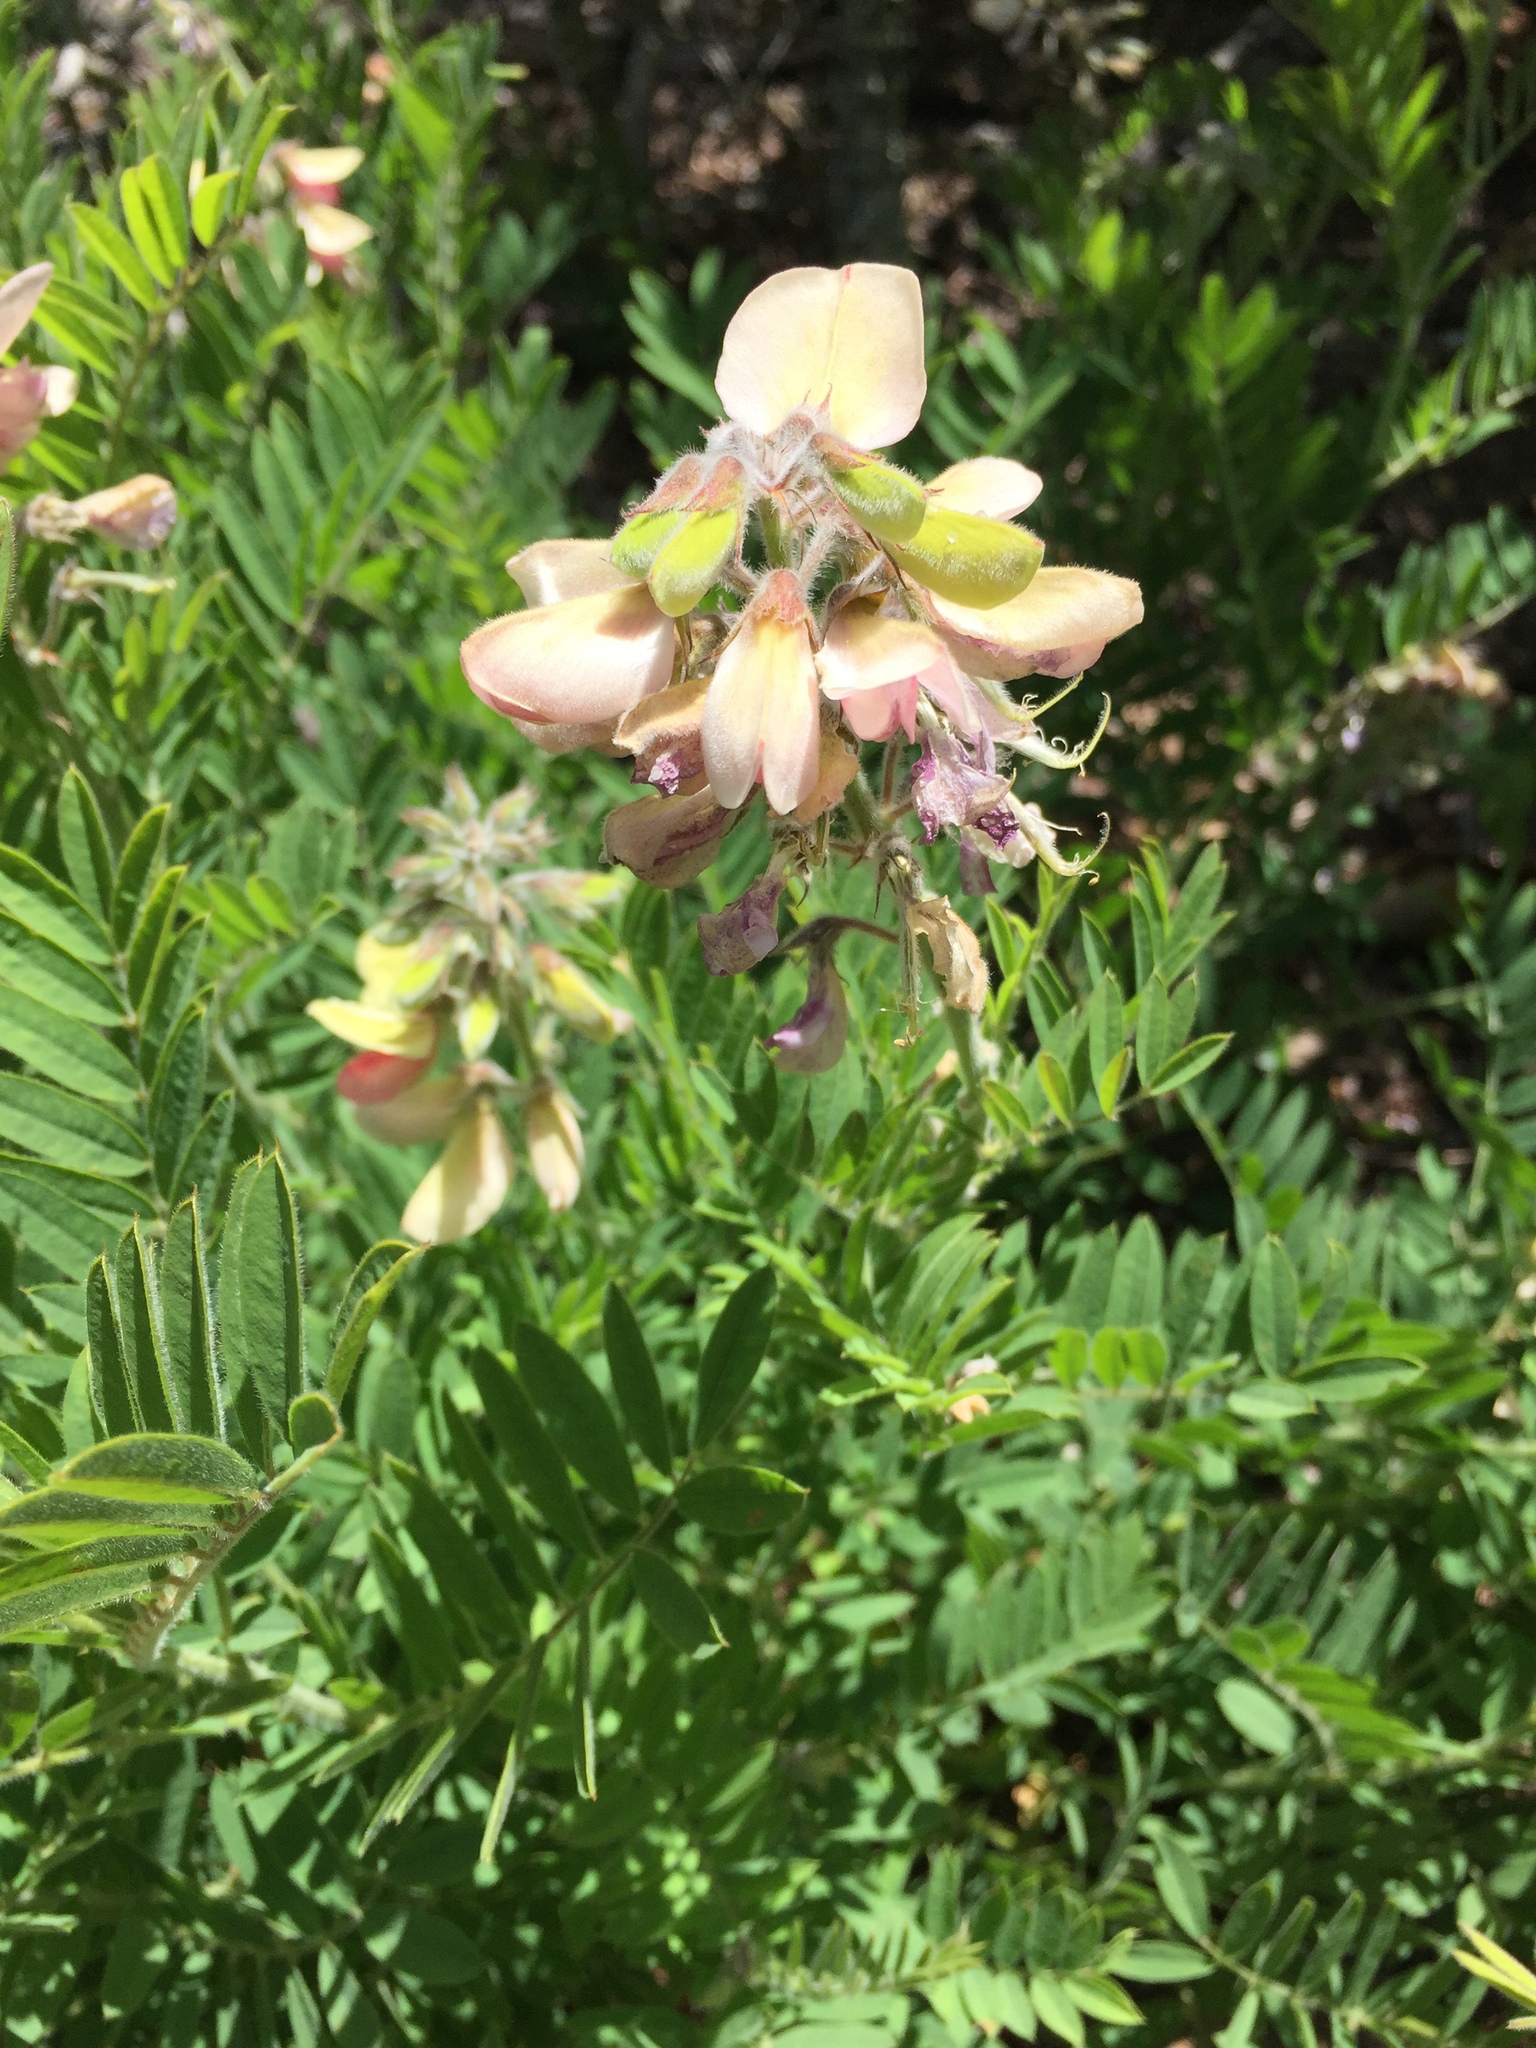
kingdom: Plantae
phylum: Tracheophyta
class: Magnoliopsida
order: Fabales
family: Fabaceae
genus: Tephrosia
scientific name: Tephrosia virginiana
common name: Rabbit-pea
